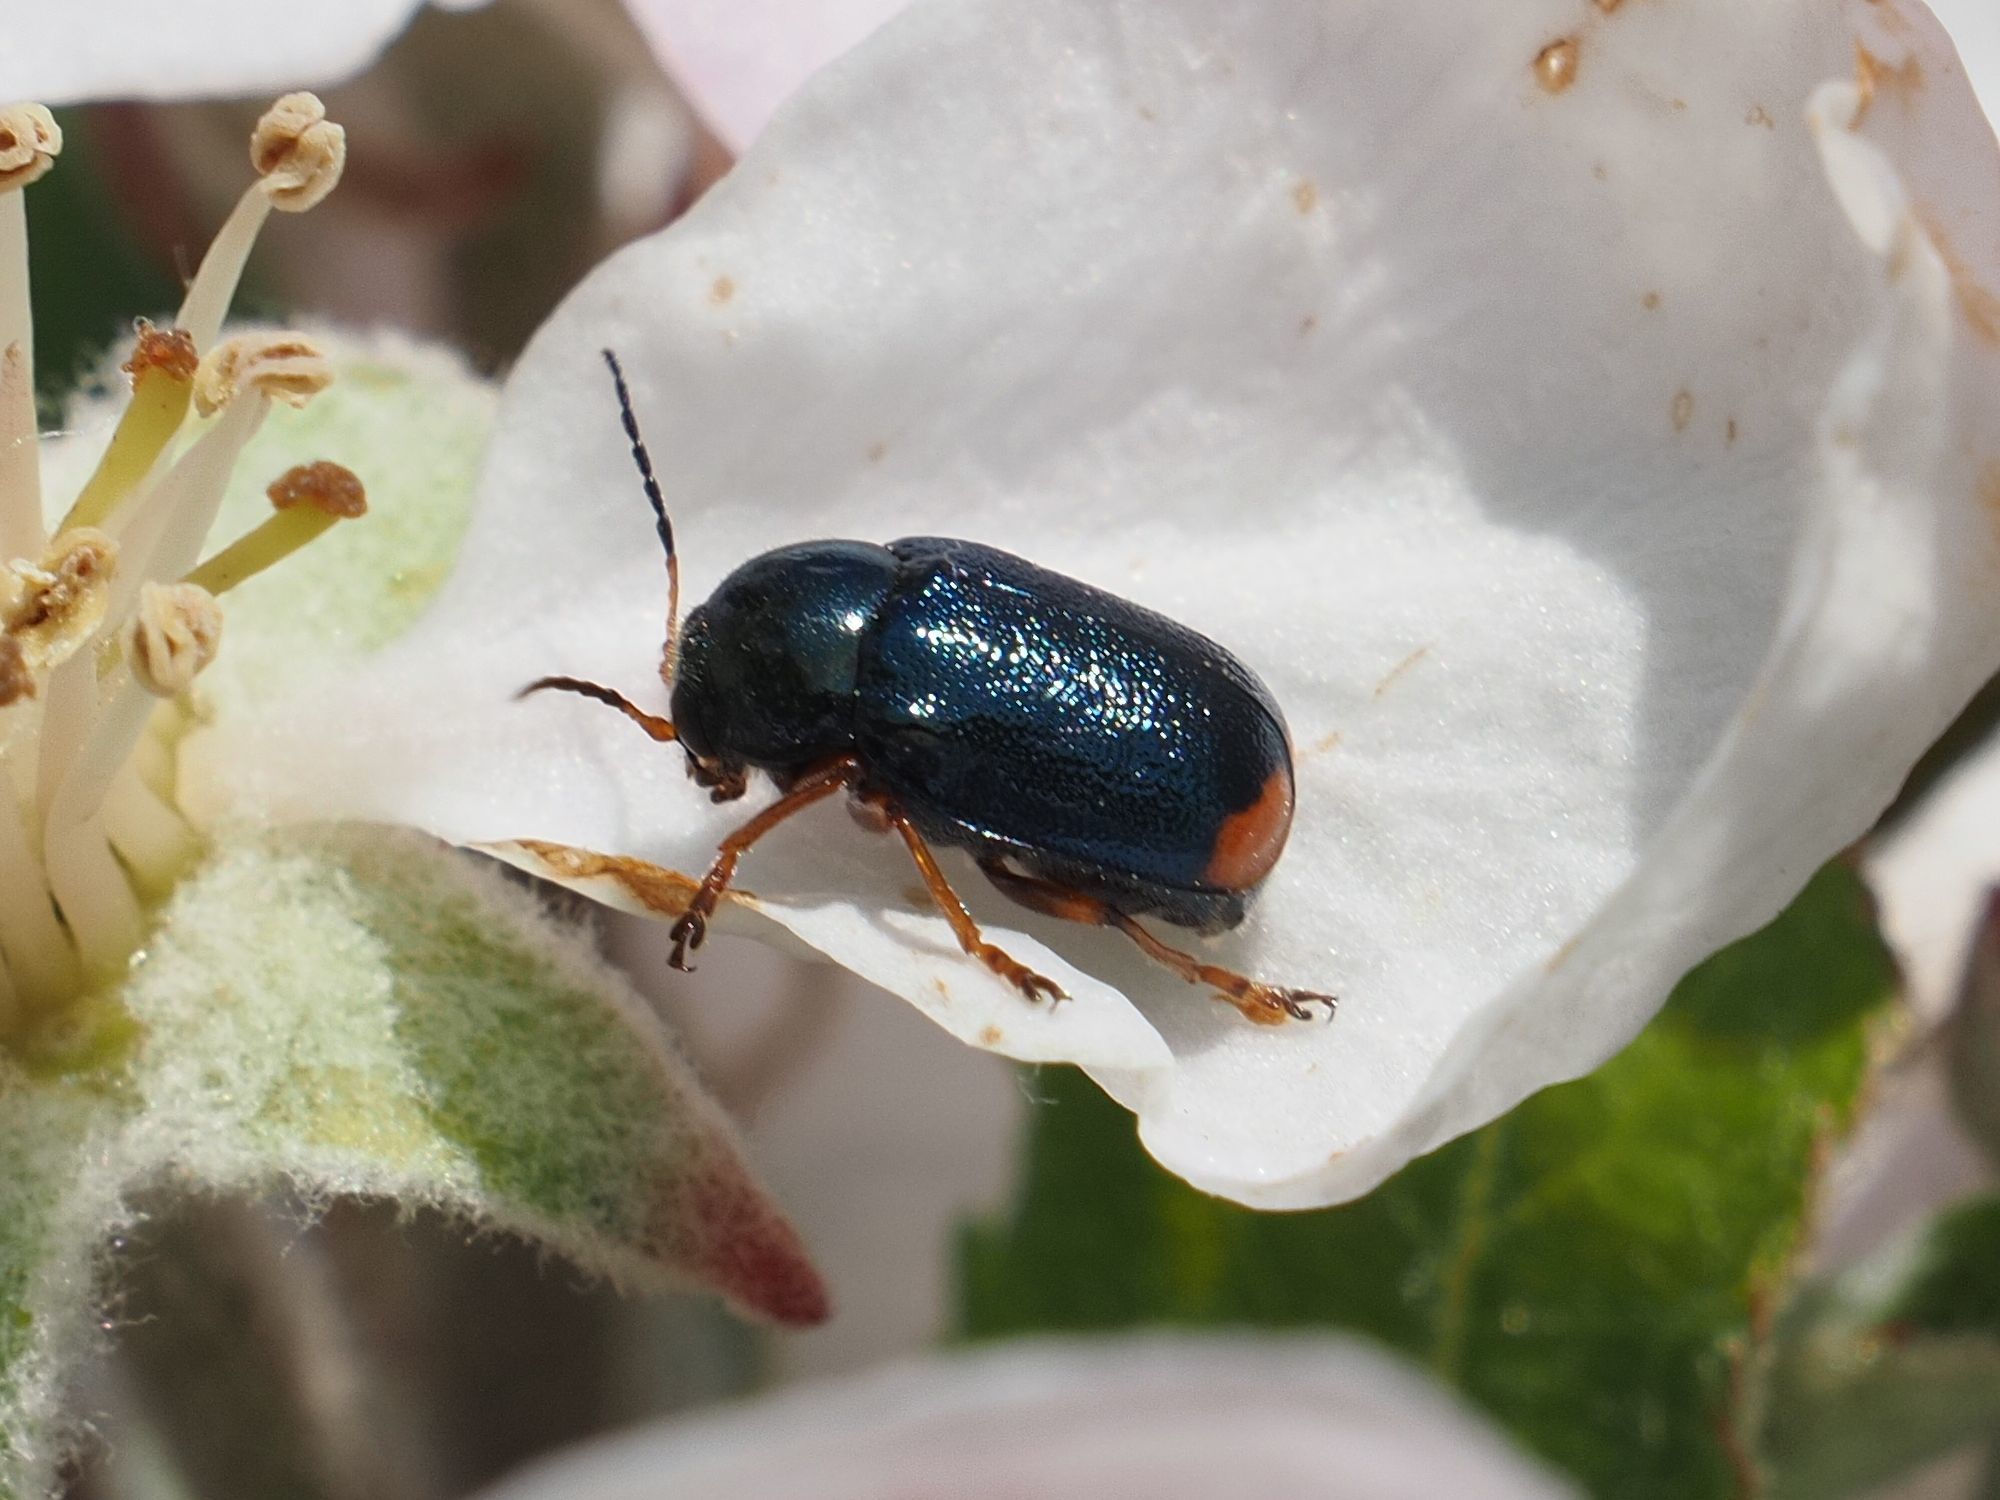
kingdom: Animalia
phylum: Arthropoda
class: Insecta
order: Coleoptera
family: Chrysomelidae
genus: Cryptocephalus
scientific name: Cryptocephalus schaefferi
